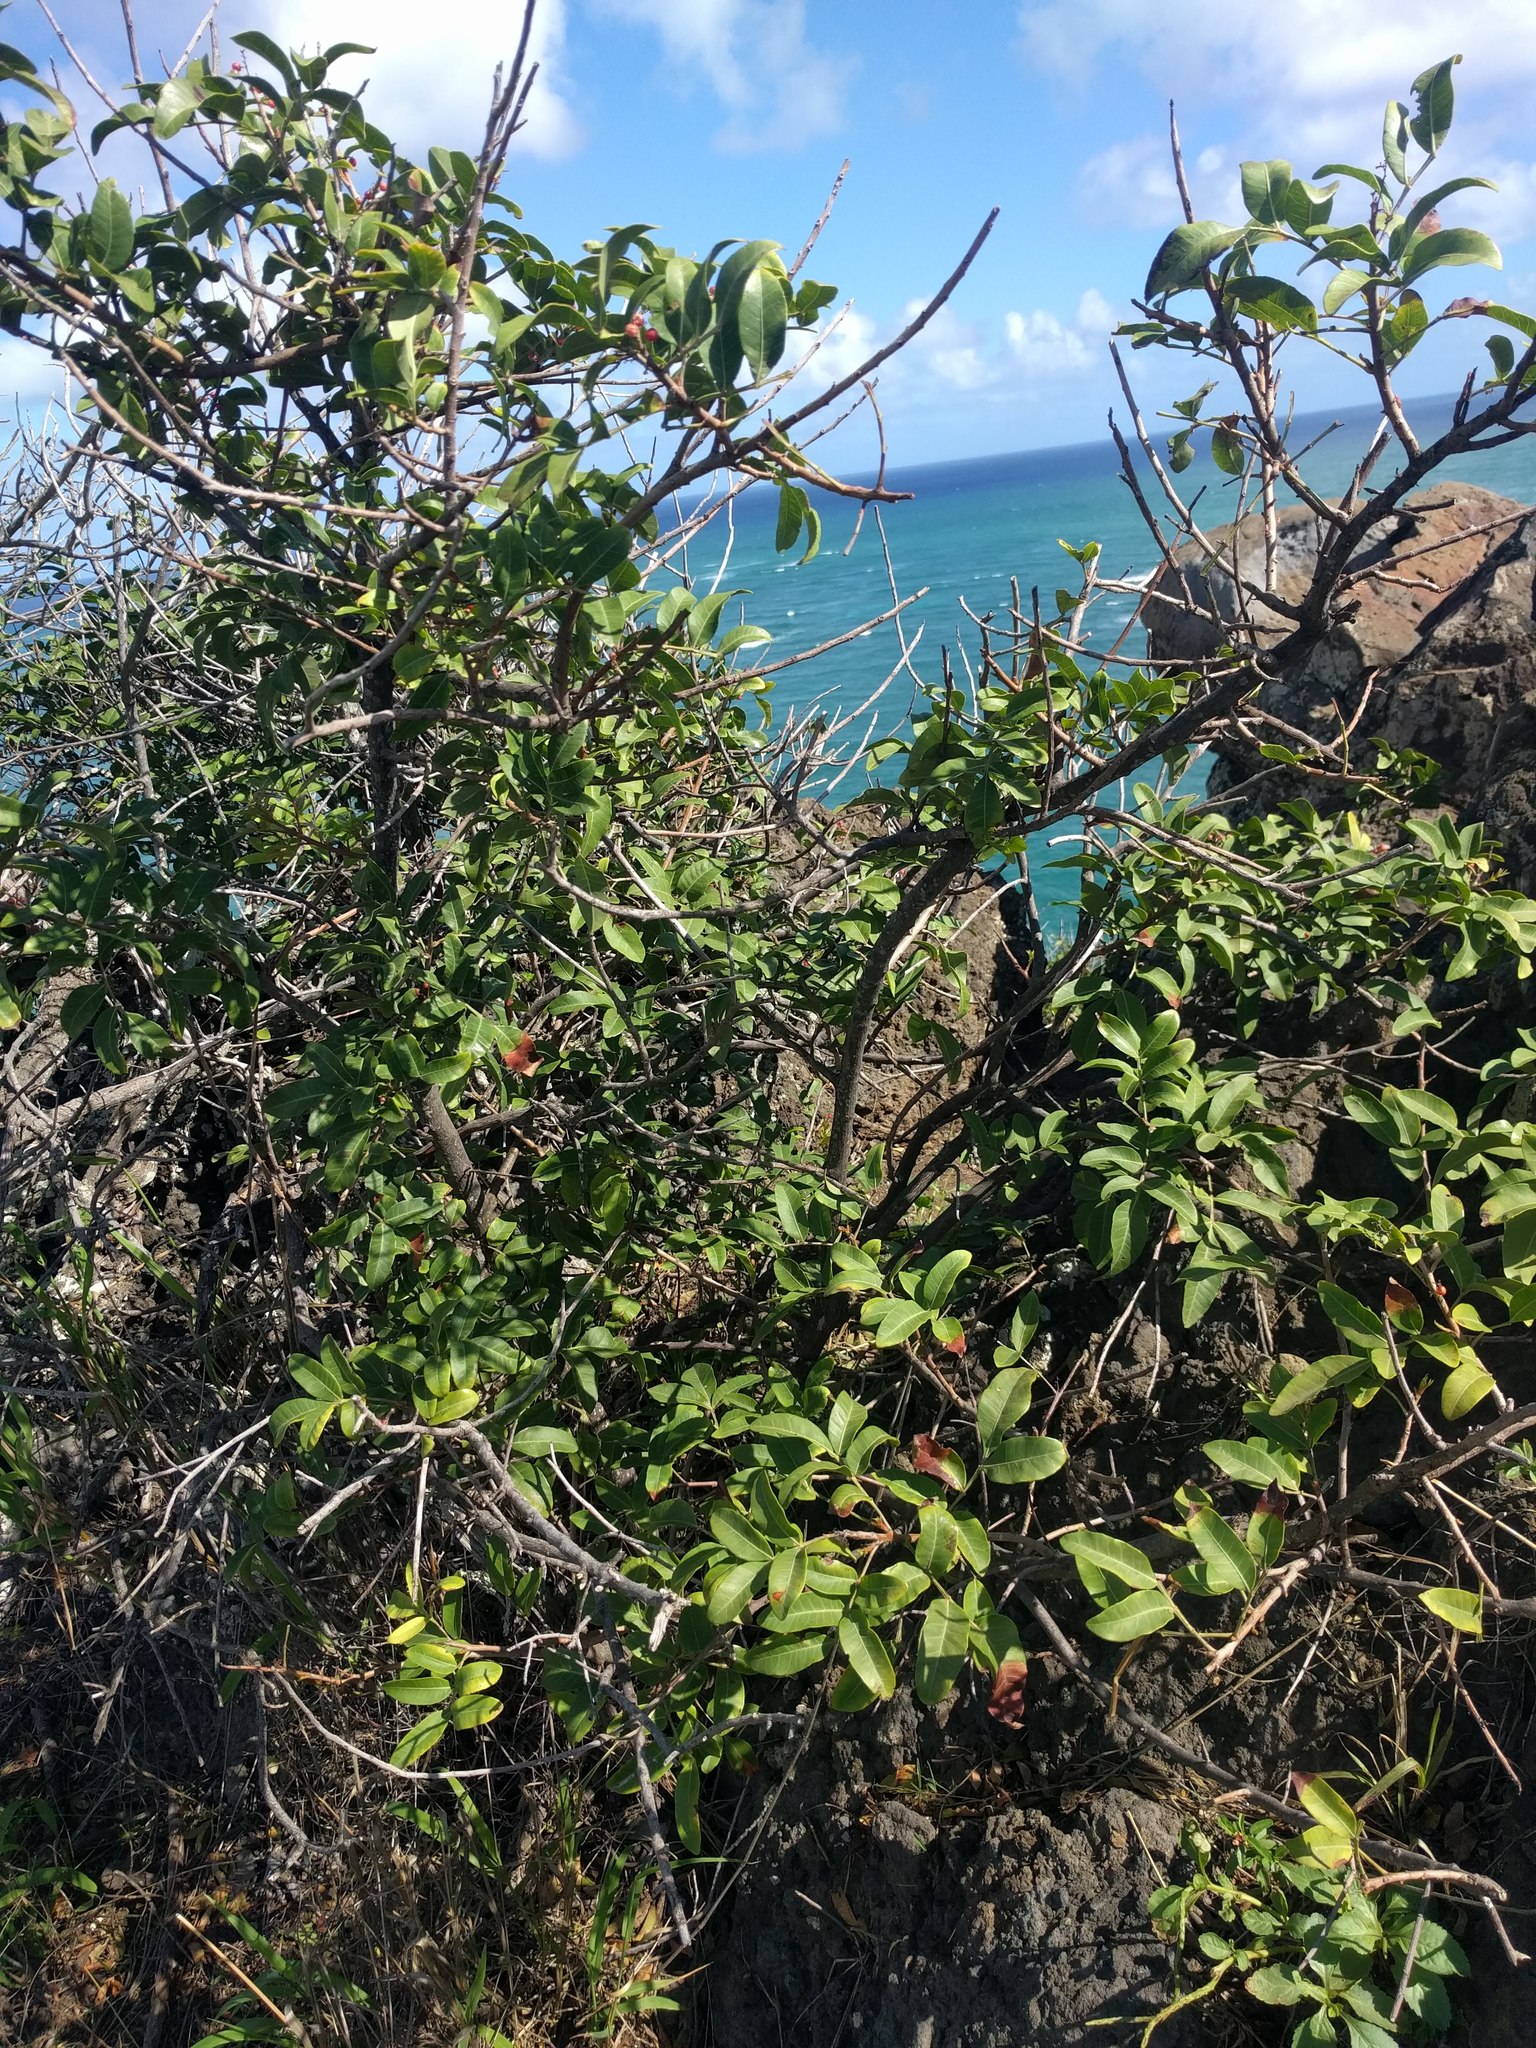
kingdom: Plantae
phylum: Tracheophyta
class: Magnoliopsida
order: Sapindales
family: Anacardiaceae
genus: Schinus
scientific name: Schinus terebinthifolia
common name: Brazilian peppertree
